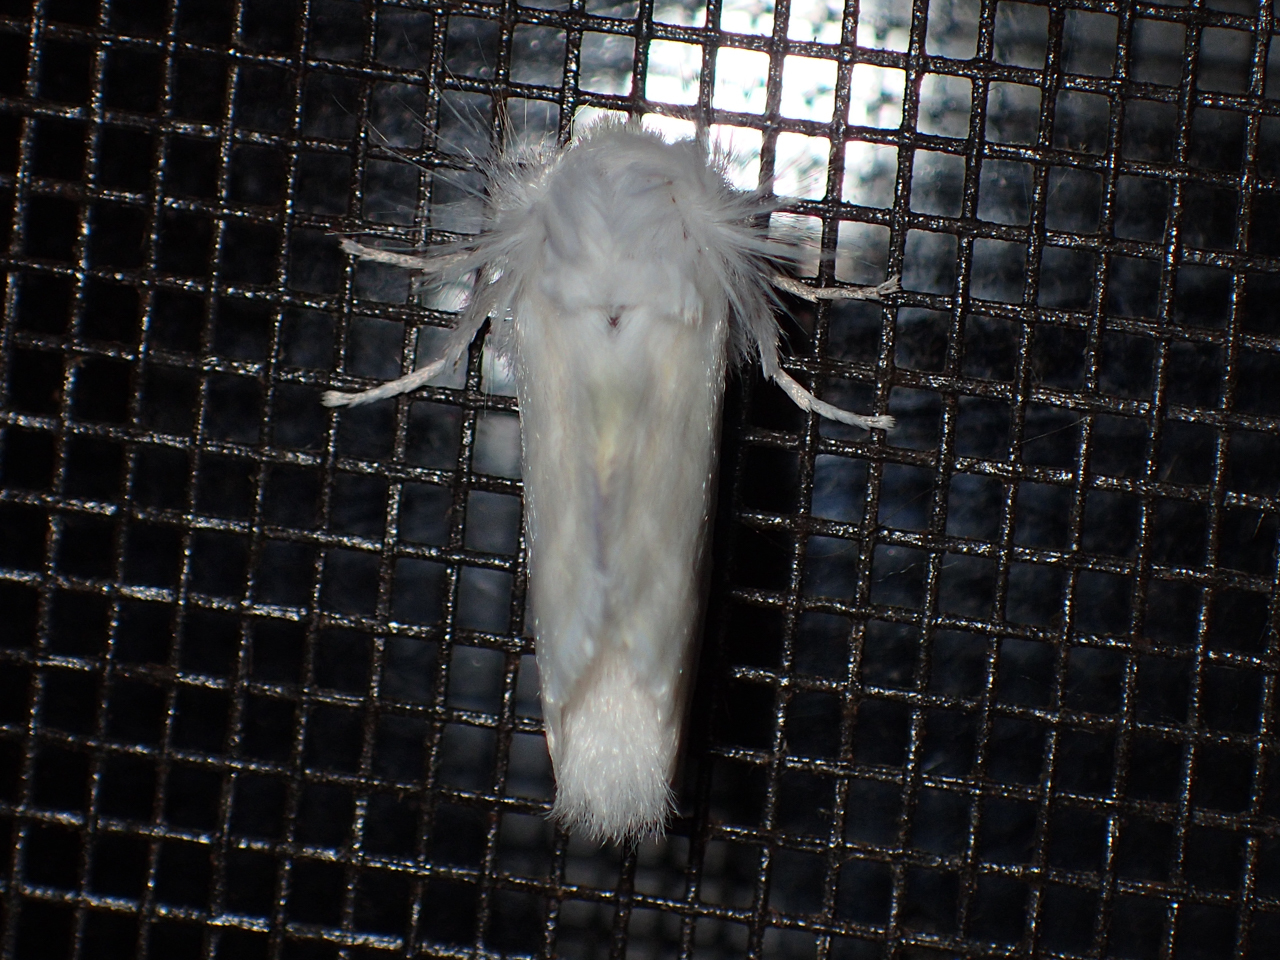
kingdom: Animalia
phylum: Arthropoda
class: Insecta
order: Lepidoptera
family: Megalopygidae
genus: Norape
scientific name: Norape cretata
